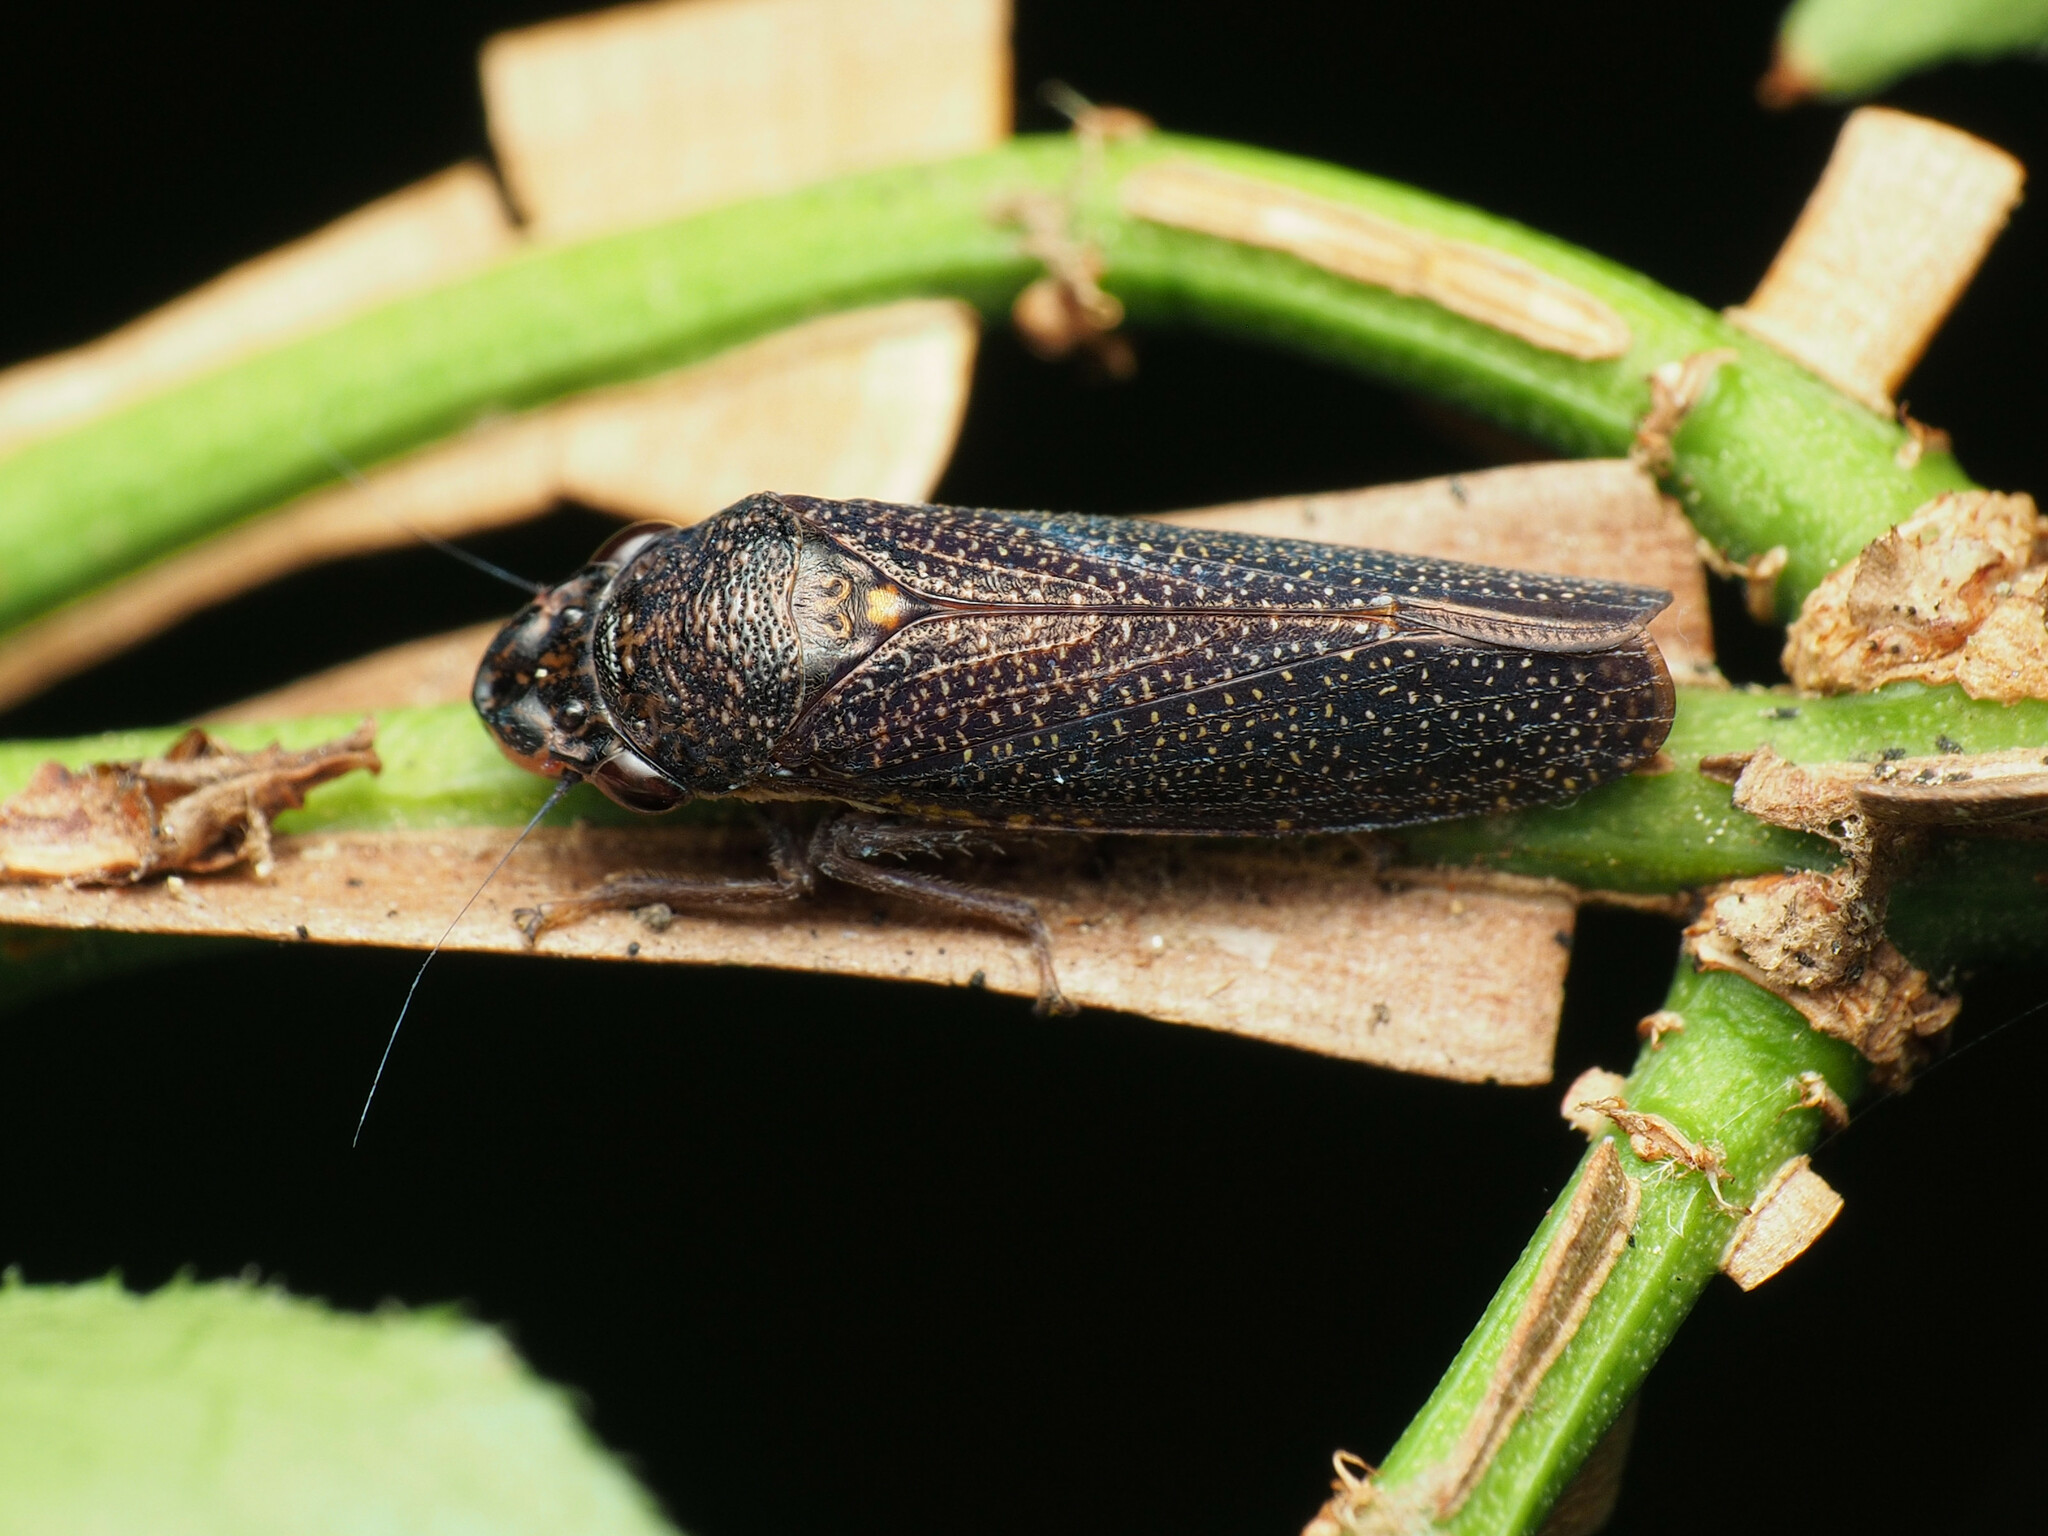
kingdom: Animalia
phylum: Arthropoda
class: Insecta
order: Hemiptera
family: Cicadellidae
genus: Paraulacizes
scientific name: Paraulacizes irrorata
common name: Speckled sharpshooter
